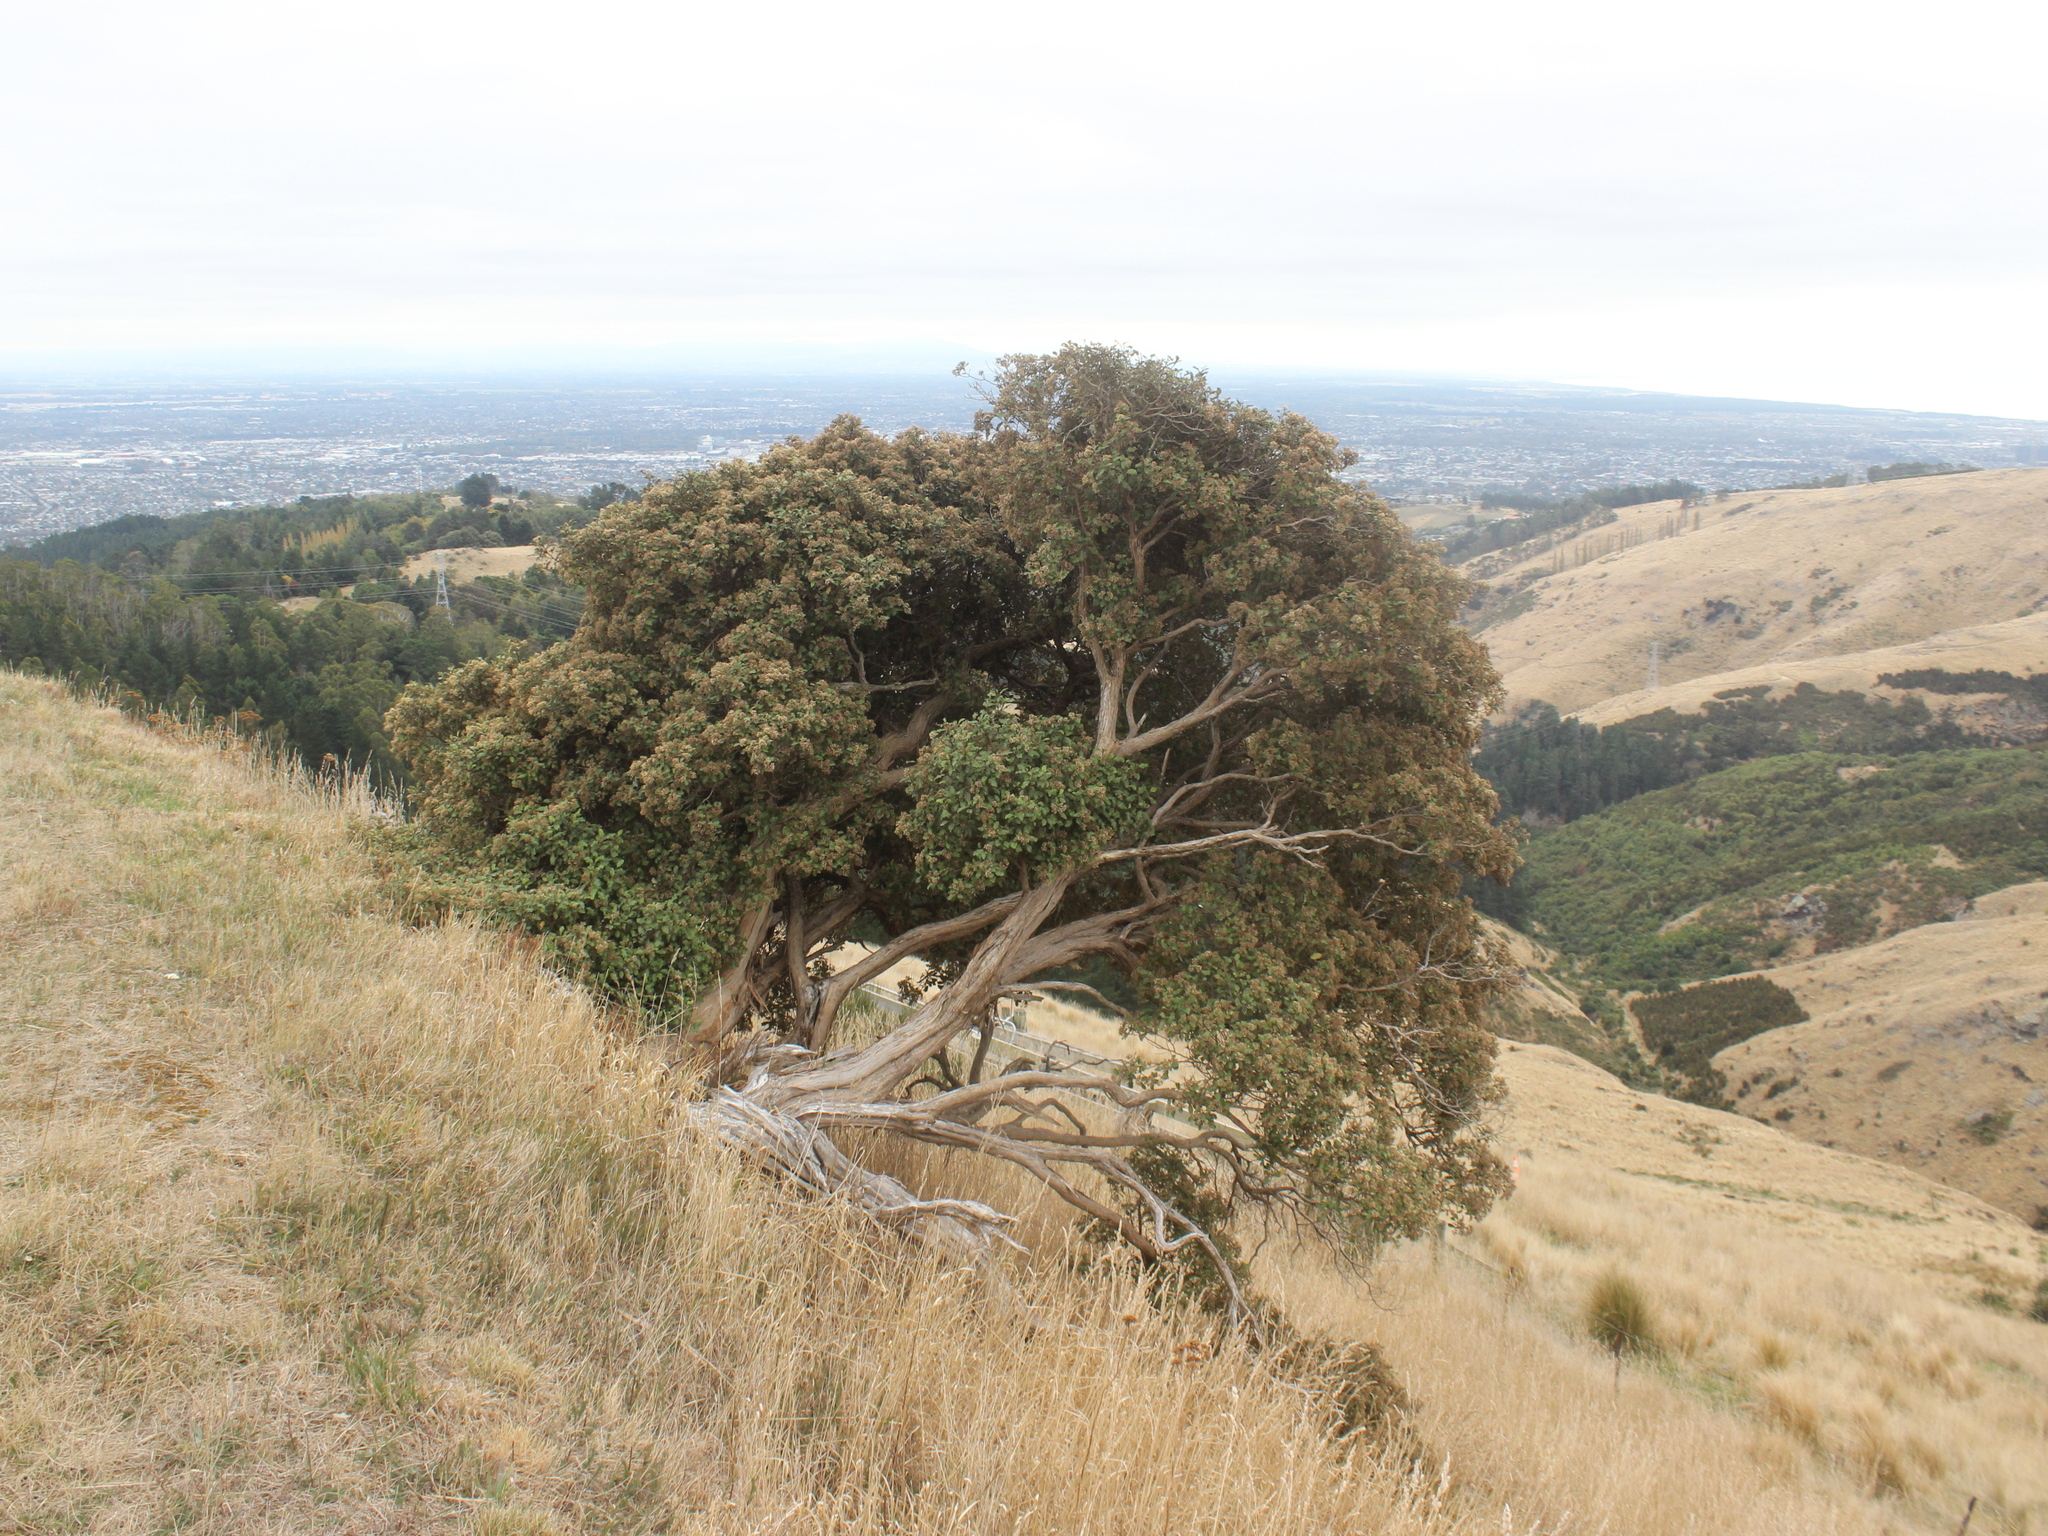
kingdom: Plantae
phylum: Tracheophyta
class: Magnoliopsida
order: Asterales
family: Asteraceae
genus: Olearia
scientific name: Olearia paniculata
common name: Akiraho
